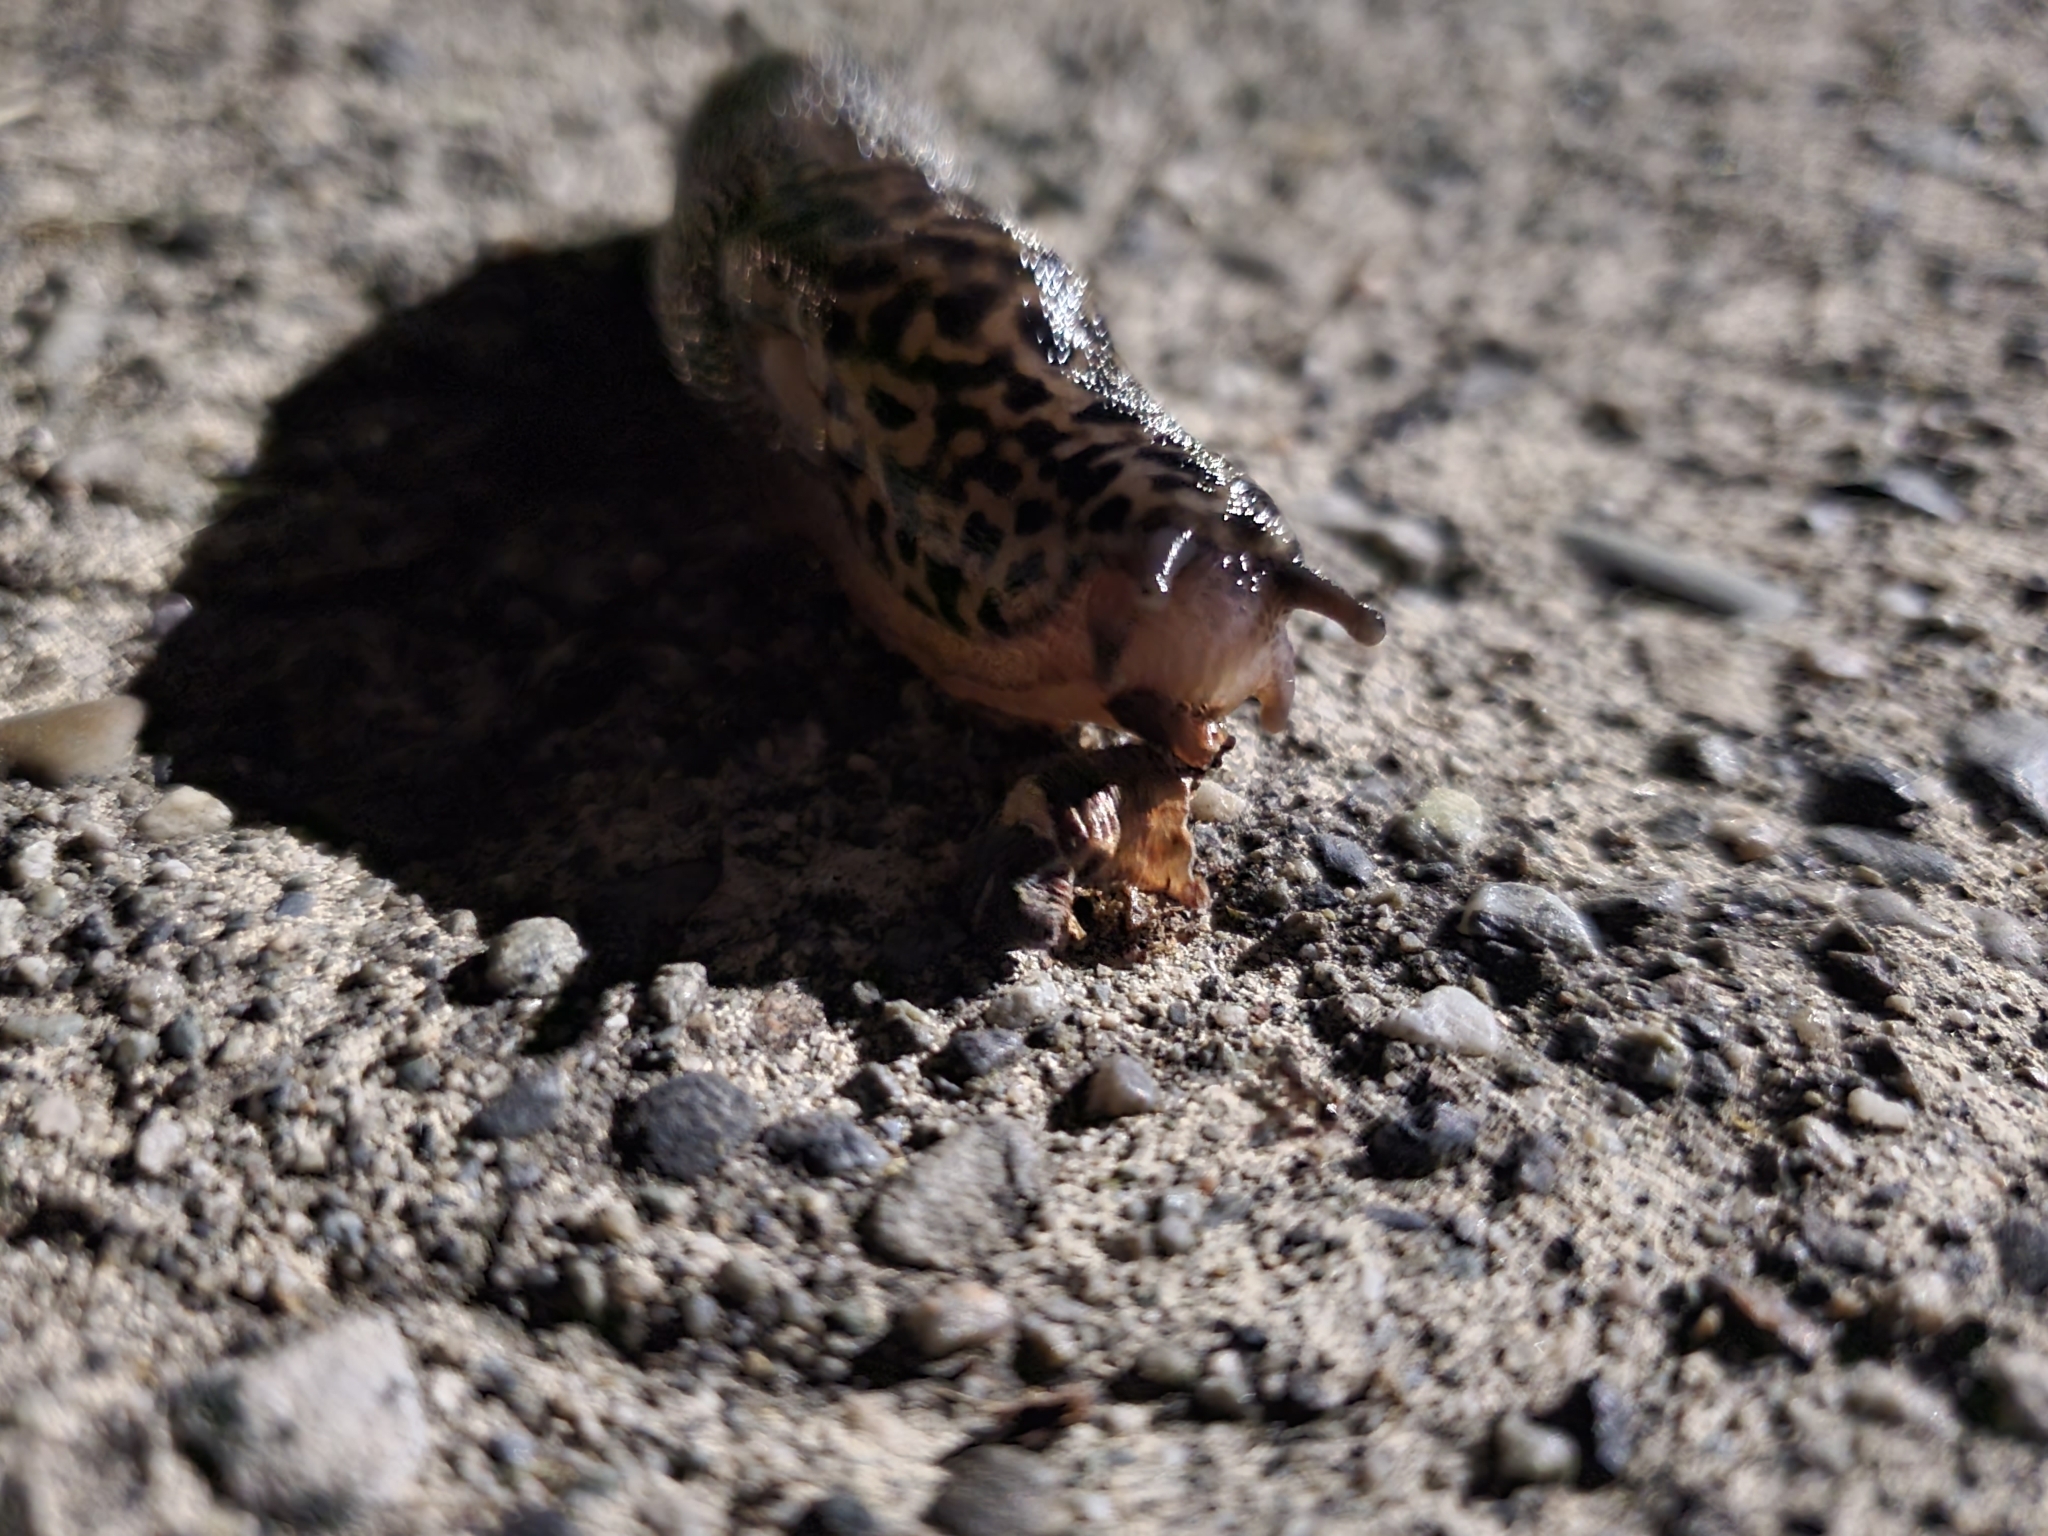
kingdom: Animalia
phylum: Mollusca
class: Gastropoda
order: Stylommatophora
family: Limacidae
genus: Limax
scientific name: Limax maximus
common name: Great grey slug
